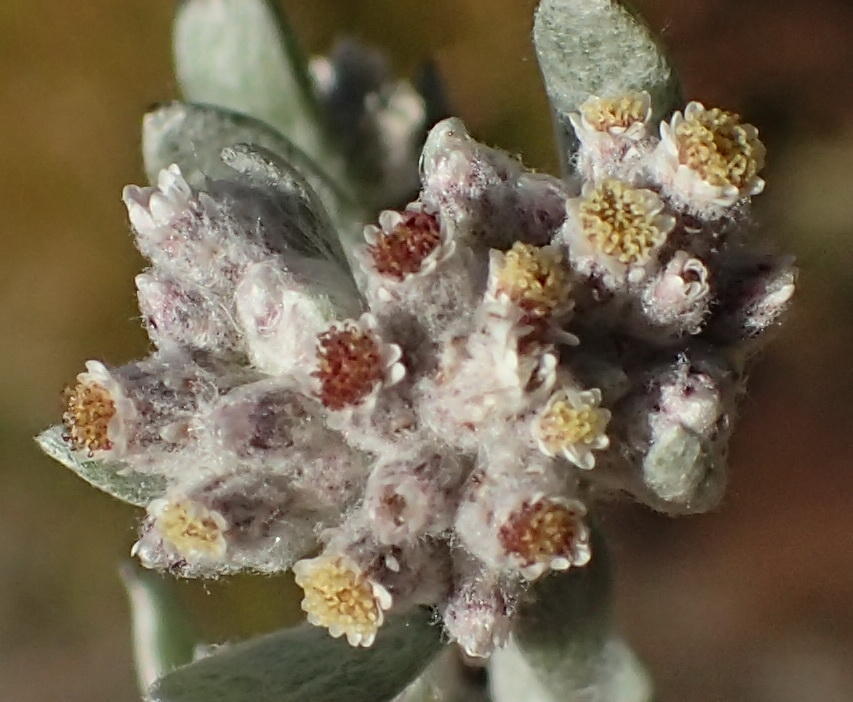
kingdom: Plantae
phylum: Tracheophyta
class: Magnoliopsida
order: Asterales
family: Asteraceae
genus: Vellereophyton
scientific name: Vellereophyton dealbatum
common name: White-cudweed
